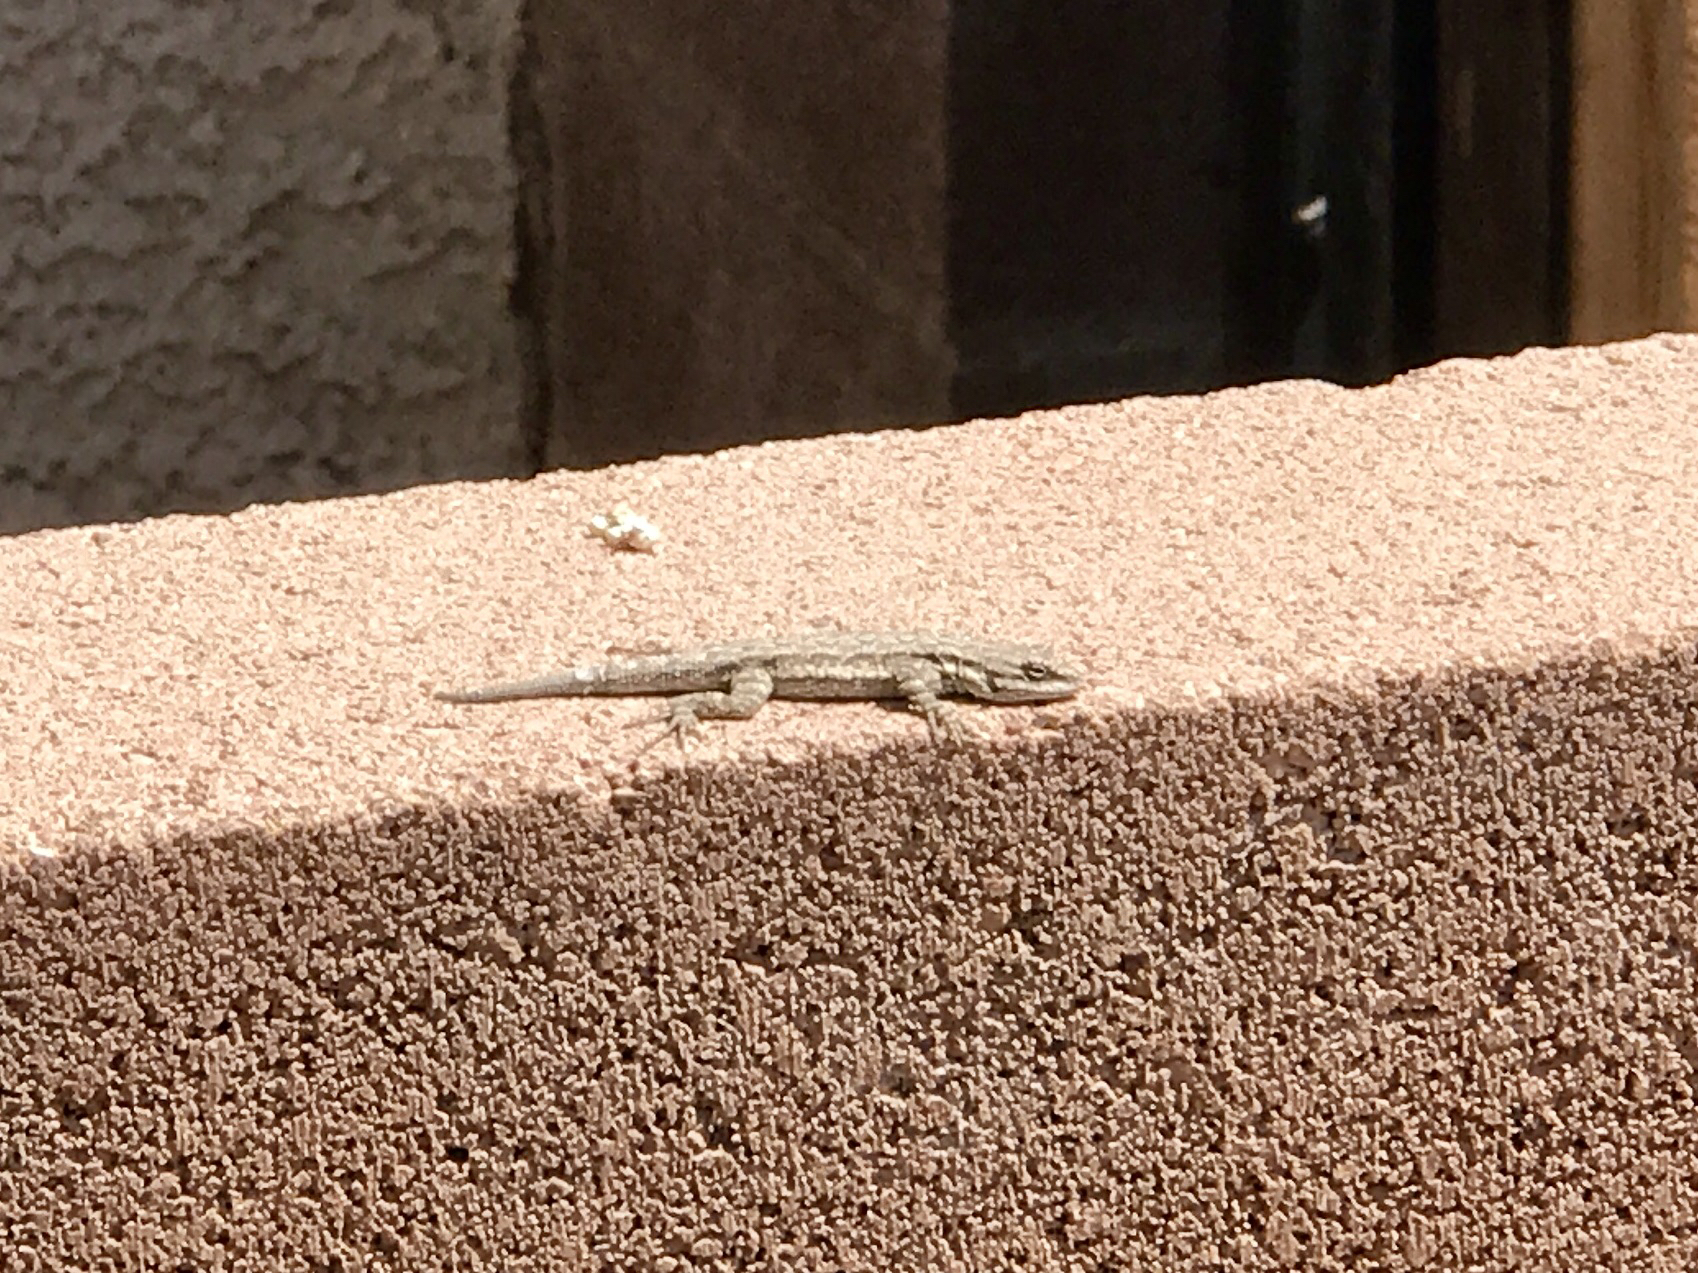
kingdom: Animalia
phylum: Chordata
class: Squamata
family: Phrynosomatidae
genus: Urosaurus
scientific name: Urosaurus ornatus
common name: Ornate tree lizard
